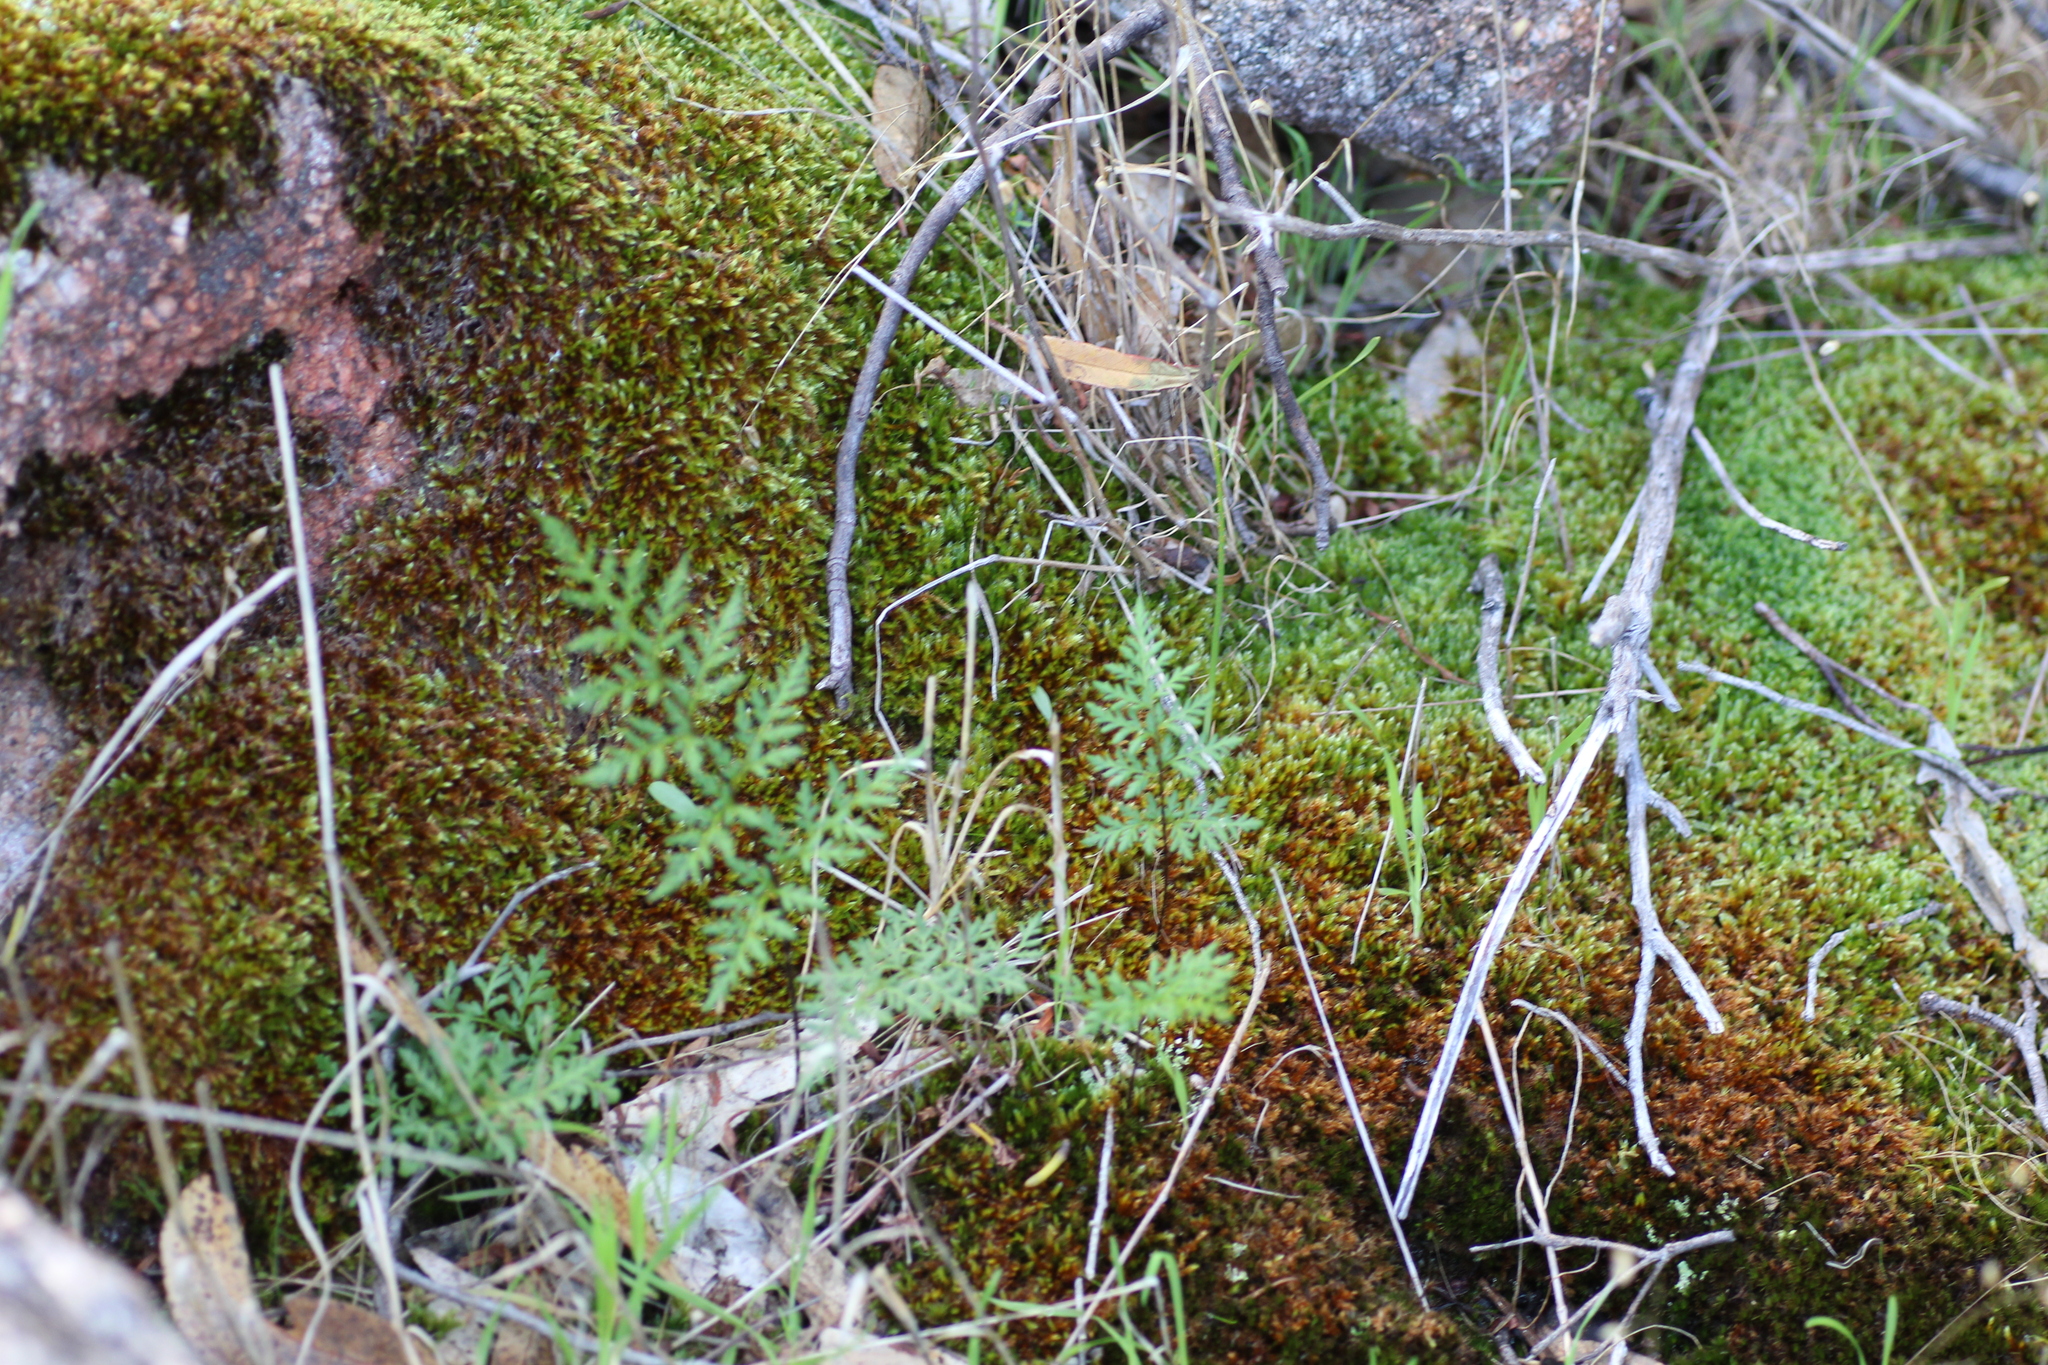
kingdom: Plantae
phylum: Tracheophyta
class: Polypodiopsida
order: Polypodiales
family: Pteridaceae
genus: Cheilanthes
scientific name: Cheilanthes austrotenuifolia
